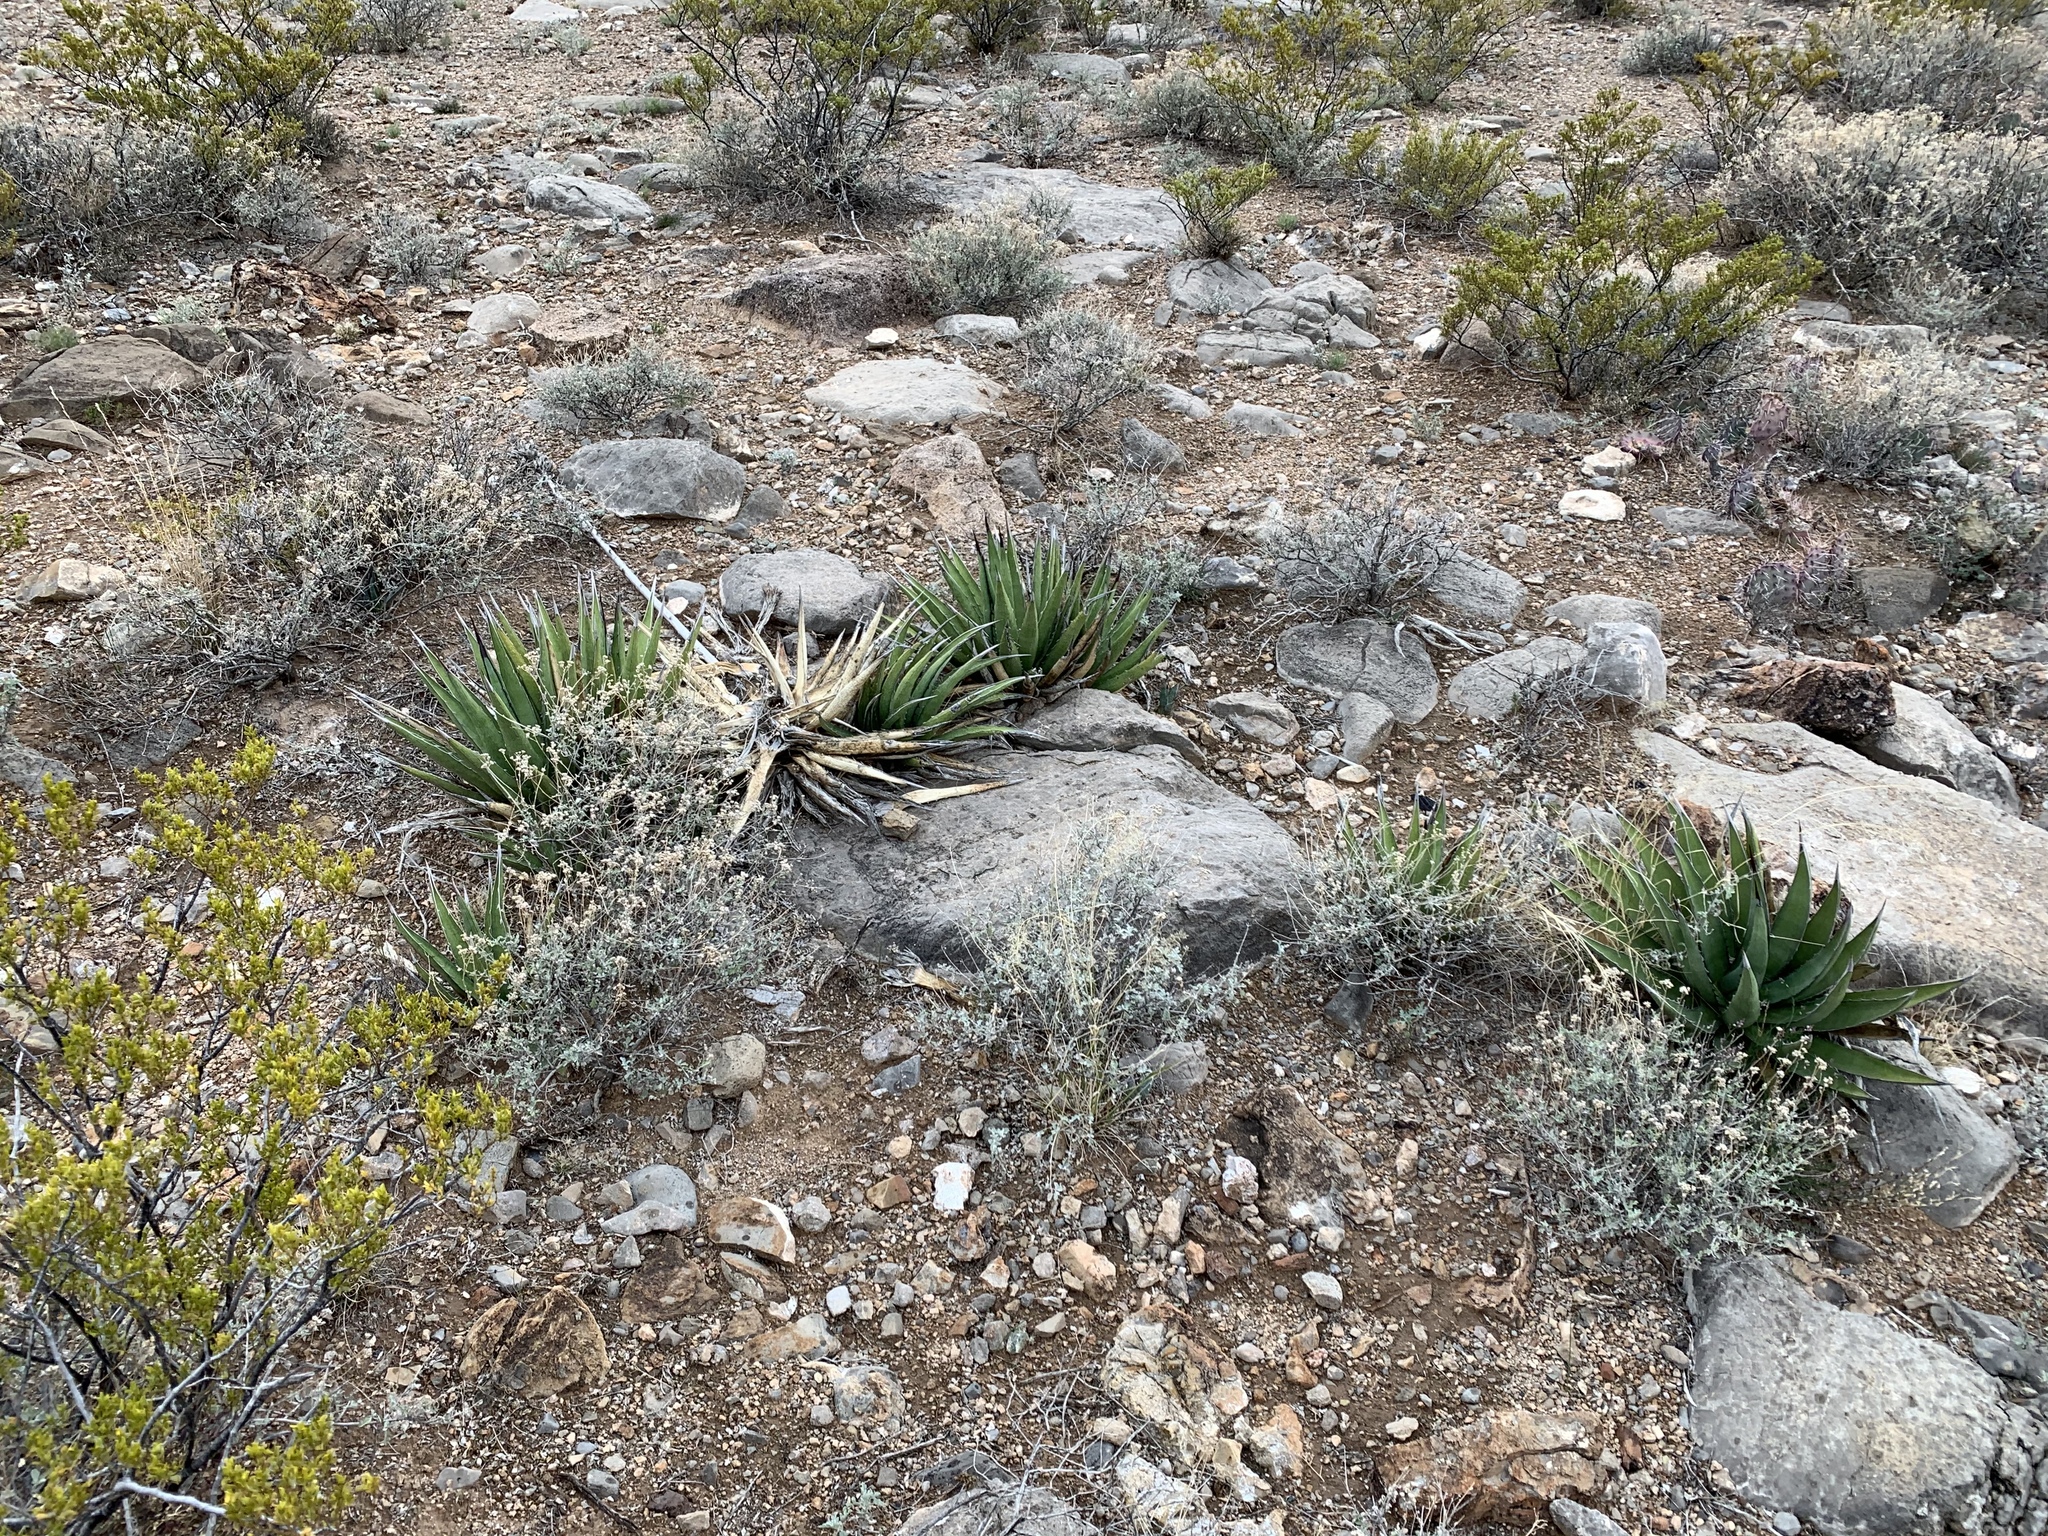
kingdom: Plantae
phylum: Tracheophyta
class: Liliopsida
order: Asparagales
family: Asparagaceae
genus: Agave
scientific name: Agave lechuguilla
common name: Lecheguilla agave
